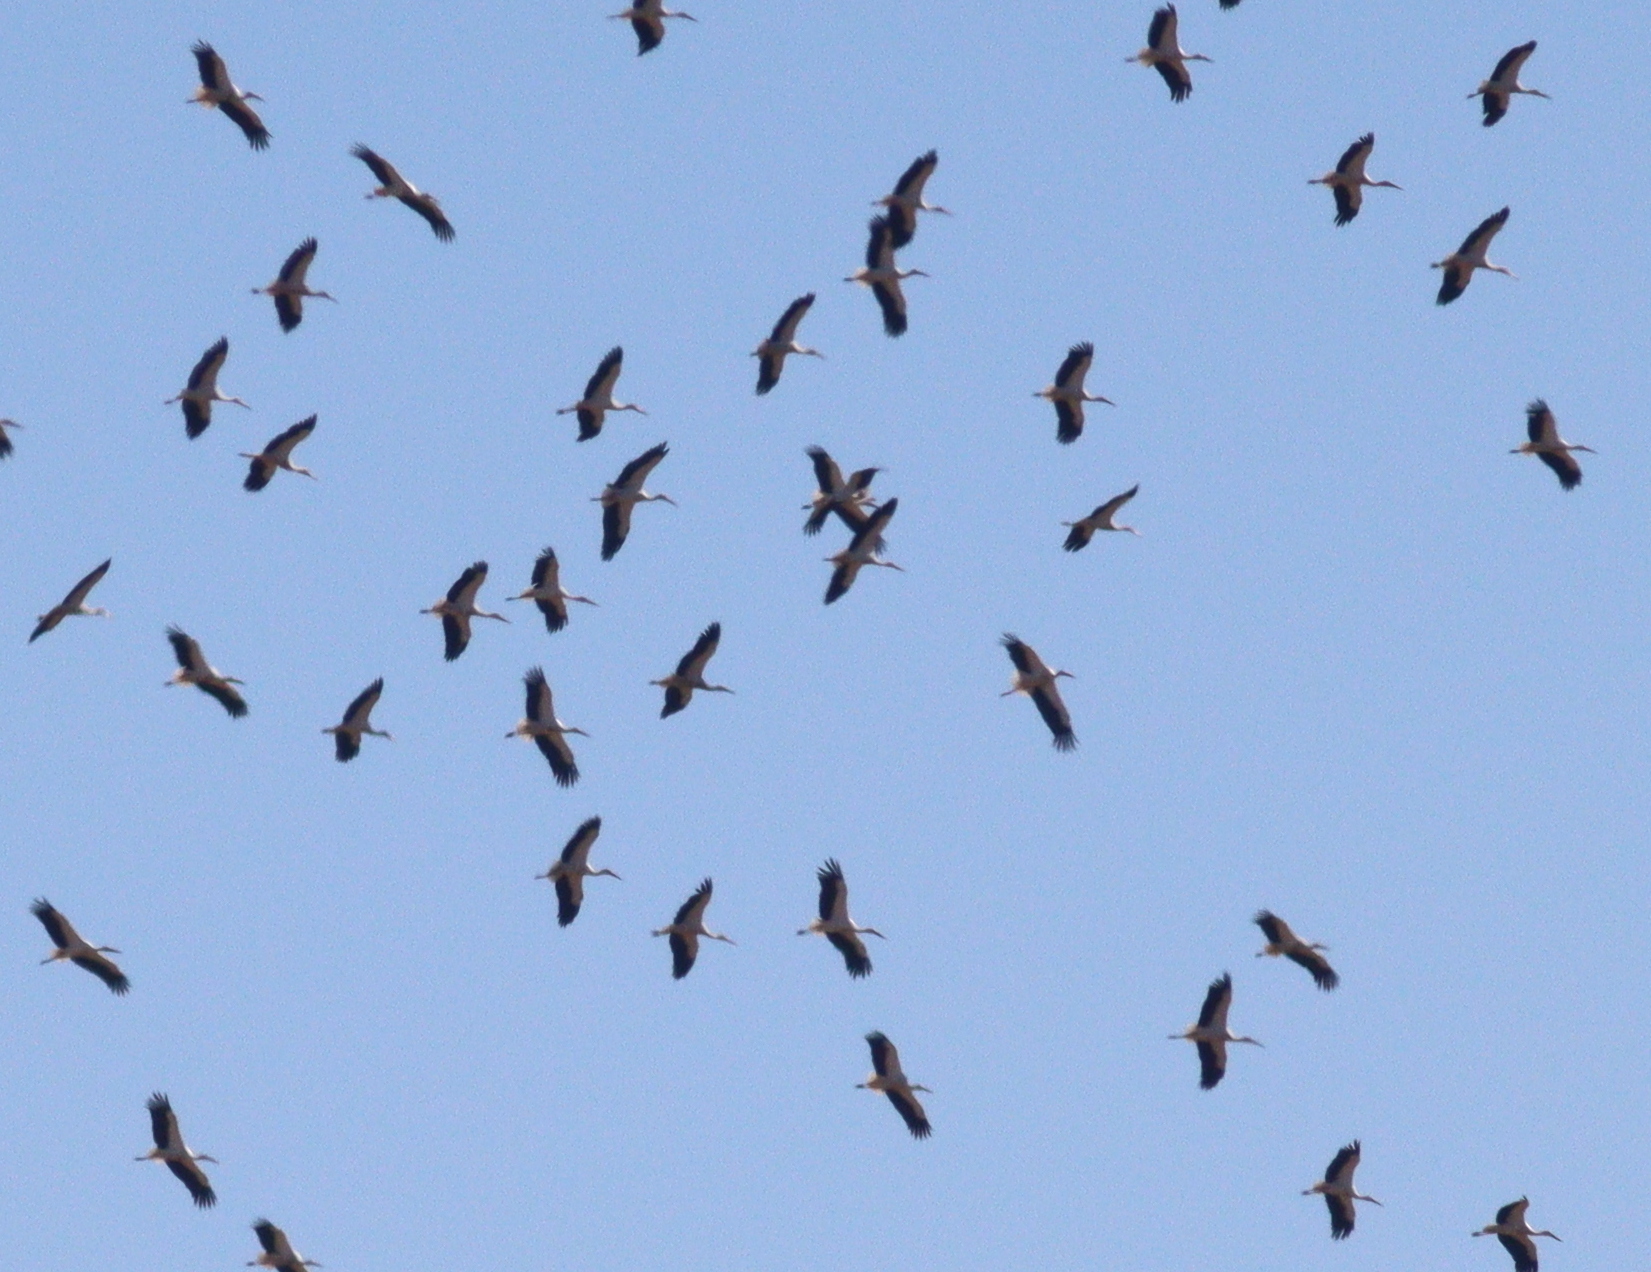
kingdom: Animalia
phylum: Chordata
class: Aves
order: Ciconiiformes
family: Ciconiidae
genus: Ciconia
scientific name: Ciconia ciconia
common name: White stork
